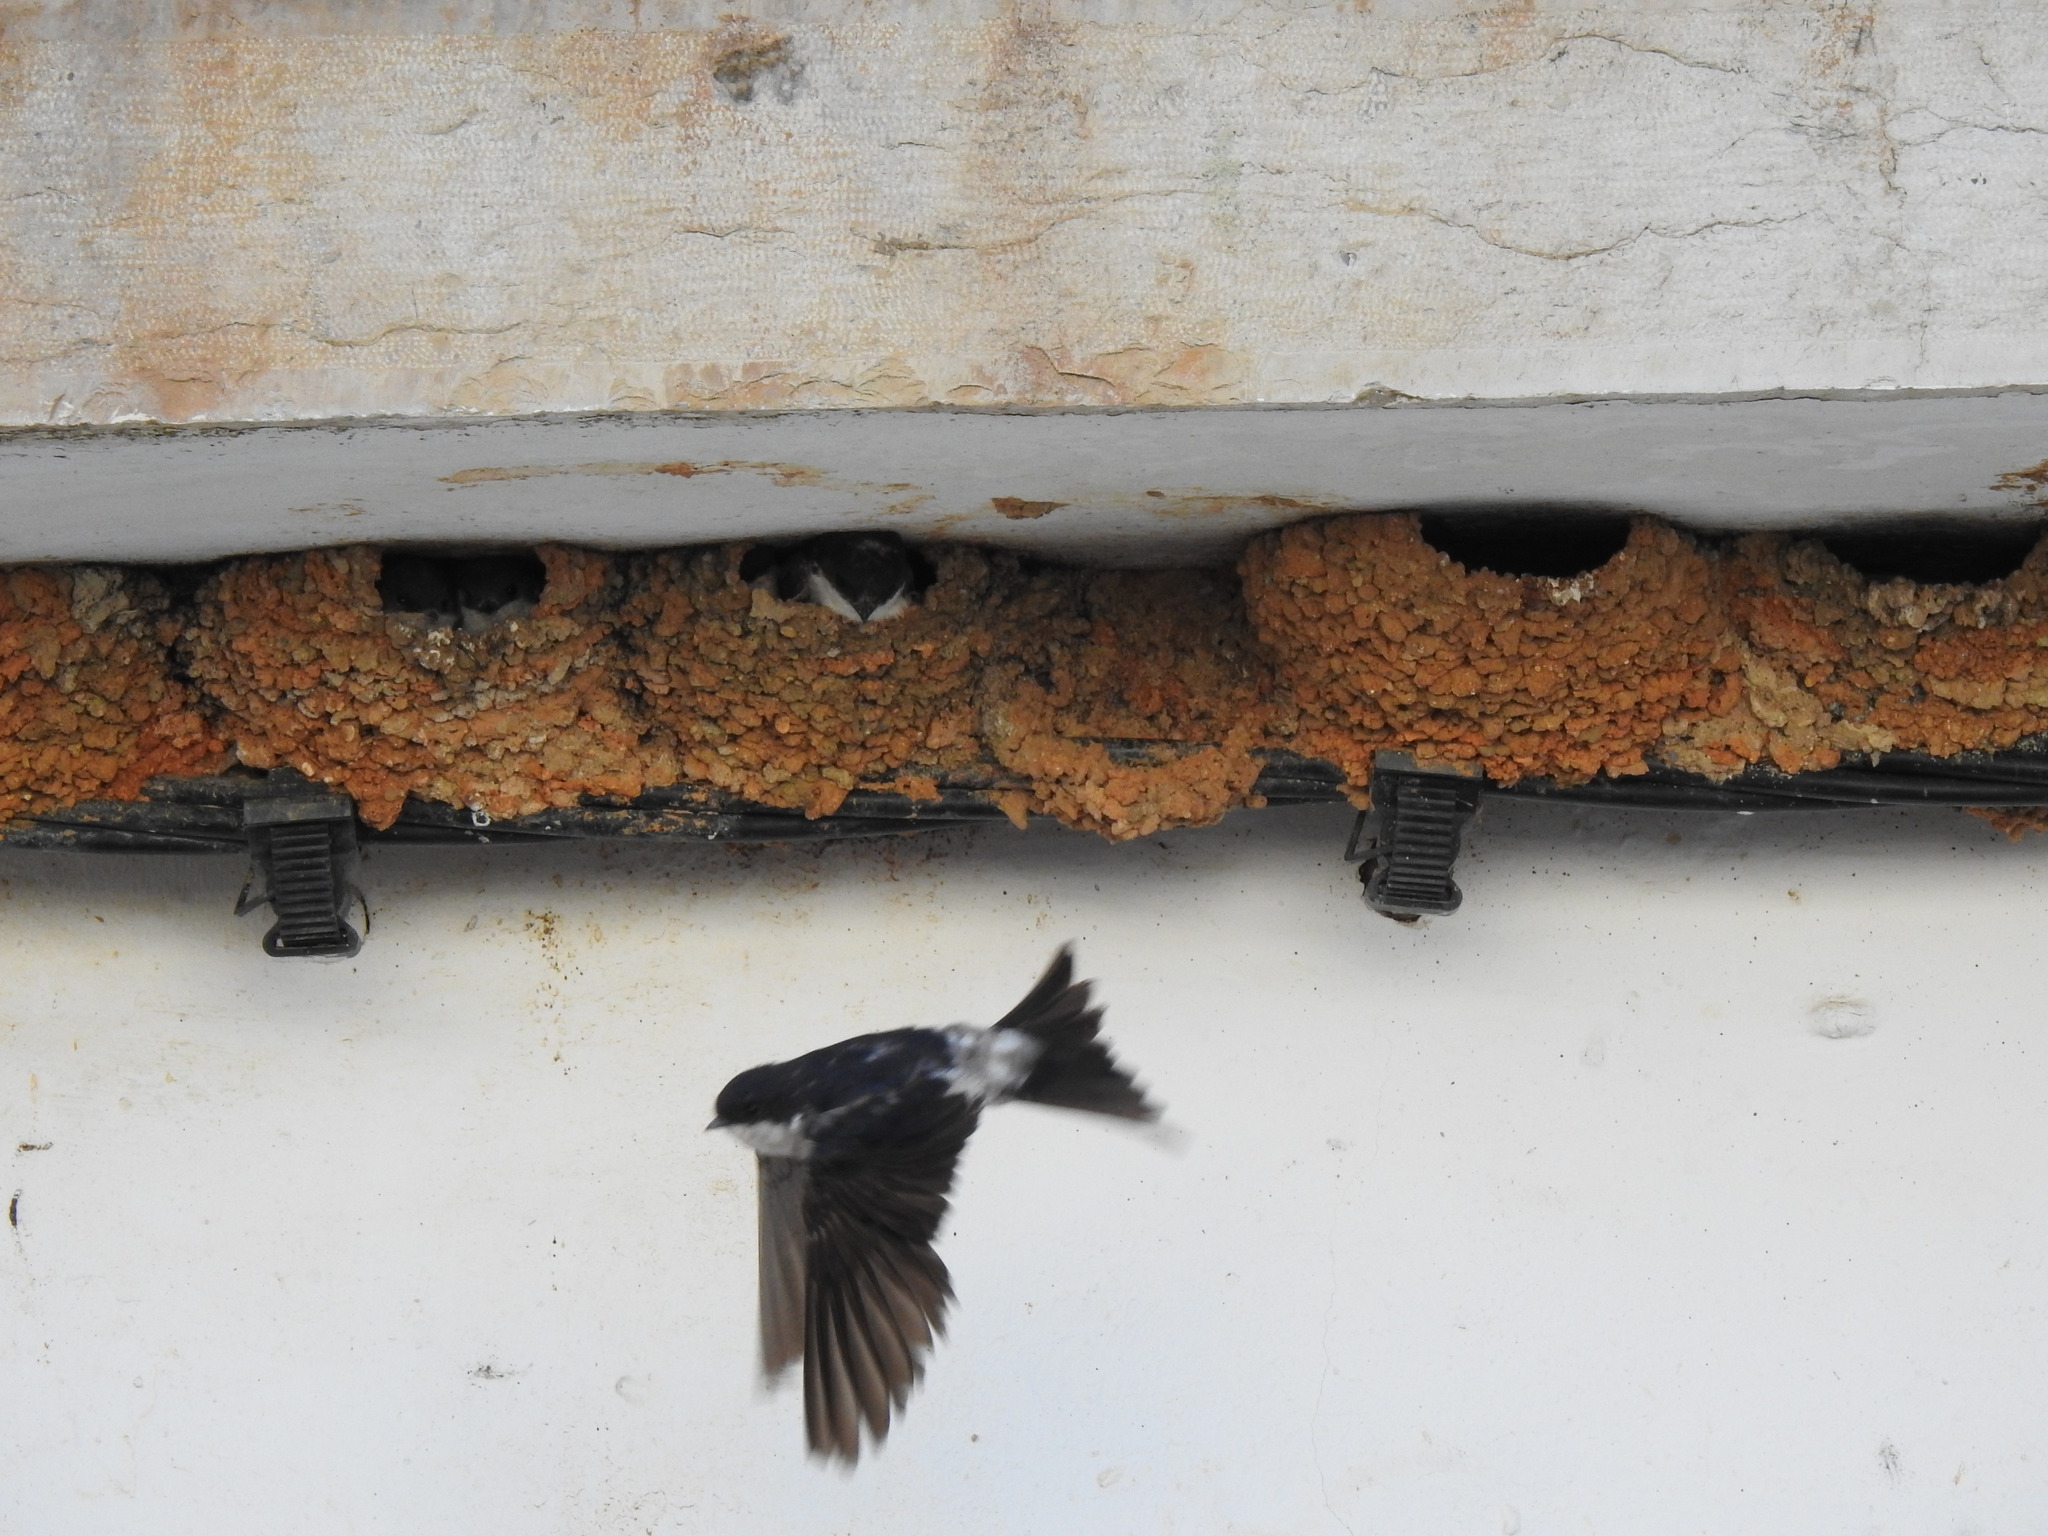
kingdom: Animalia
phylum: Chordata
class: Aves
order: Passeriformes
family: Hirundinidae
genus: Delichon
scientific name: Delichon urbicum
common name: Common house martin
